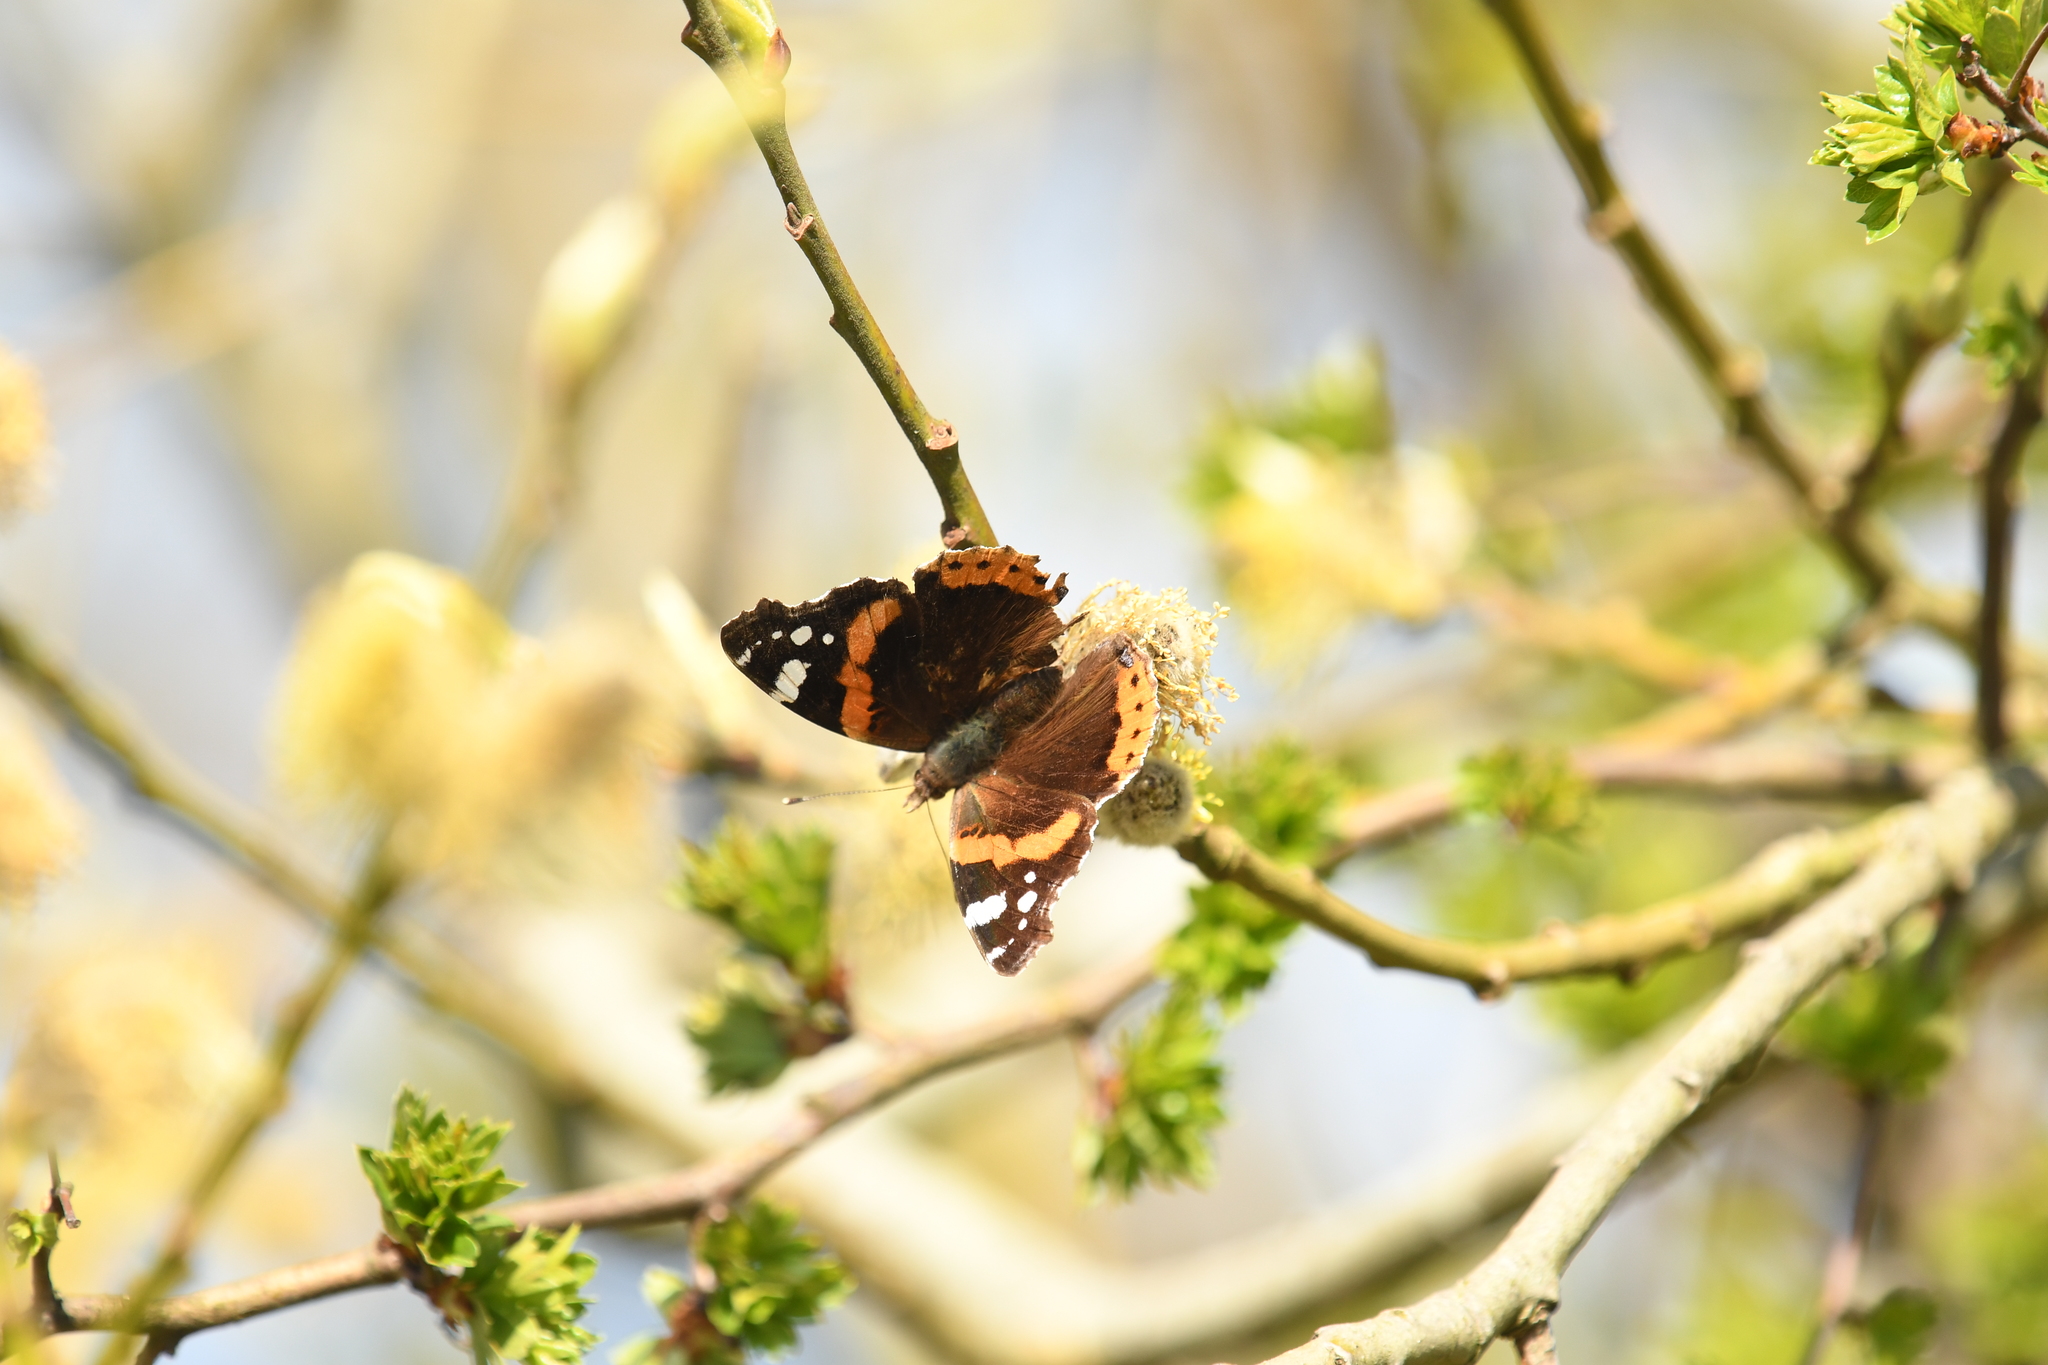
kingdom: Animalia
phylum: Arthropoda
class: Insecta
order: Lepidoptera
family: Nymphalidae
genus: Vanessa
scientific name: Vanessa atalanta
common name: Red admiral
